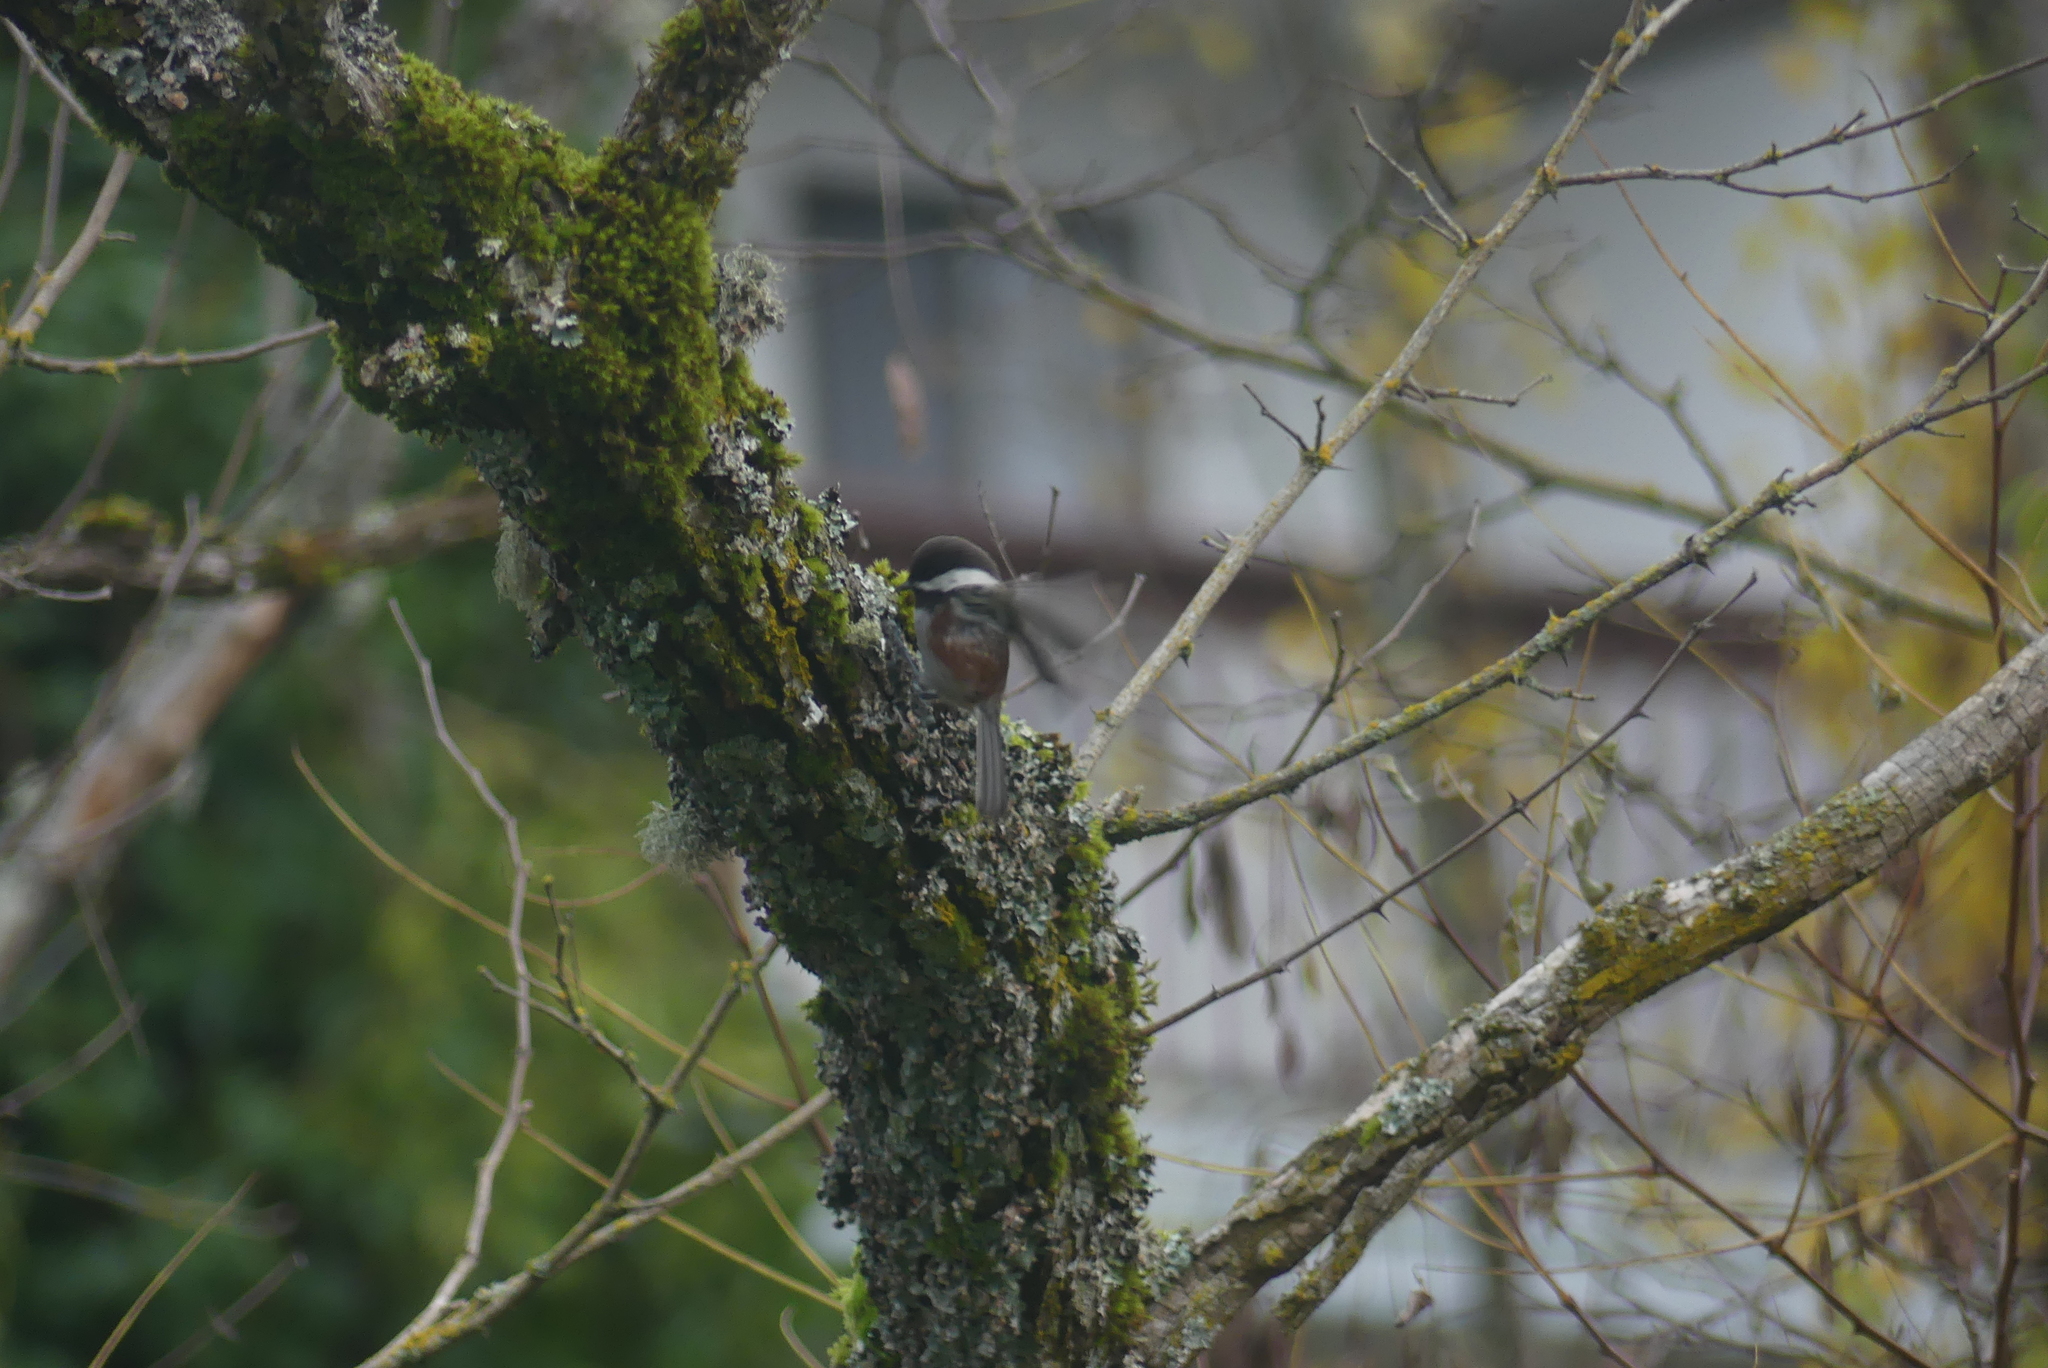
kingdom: Animalia
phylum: Chordata
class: Aves
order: Passeriformes
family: Paridae
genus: Poecile
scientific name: Poecile rufescens
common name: Chestnut-backed chickadee
